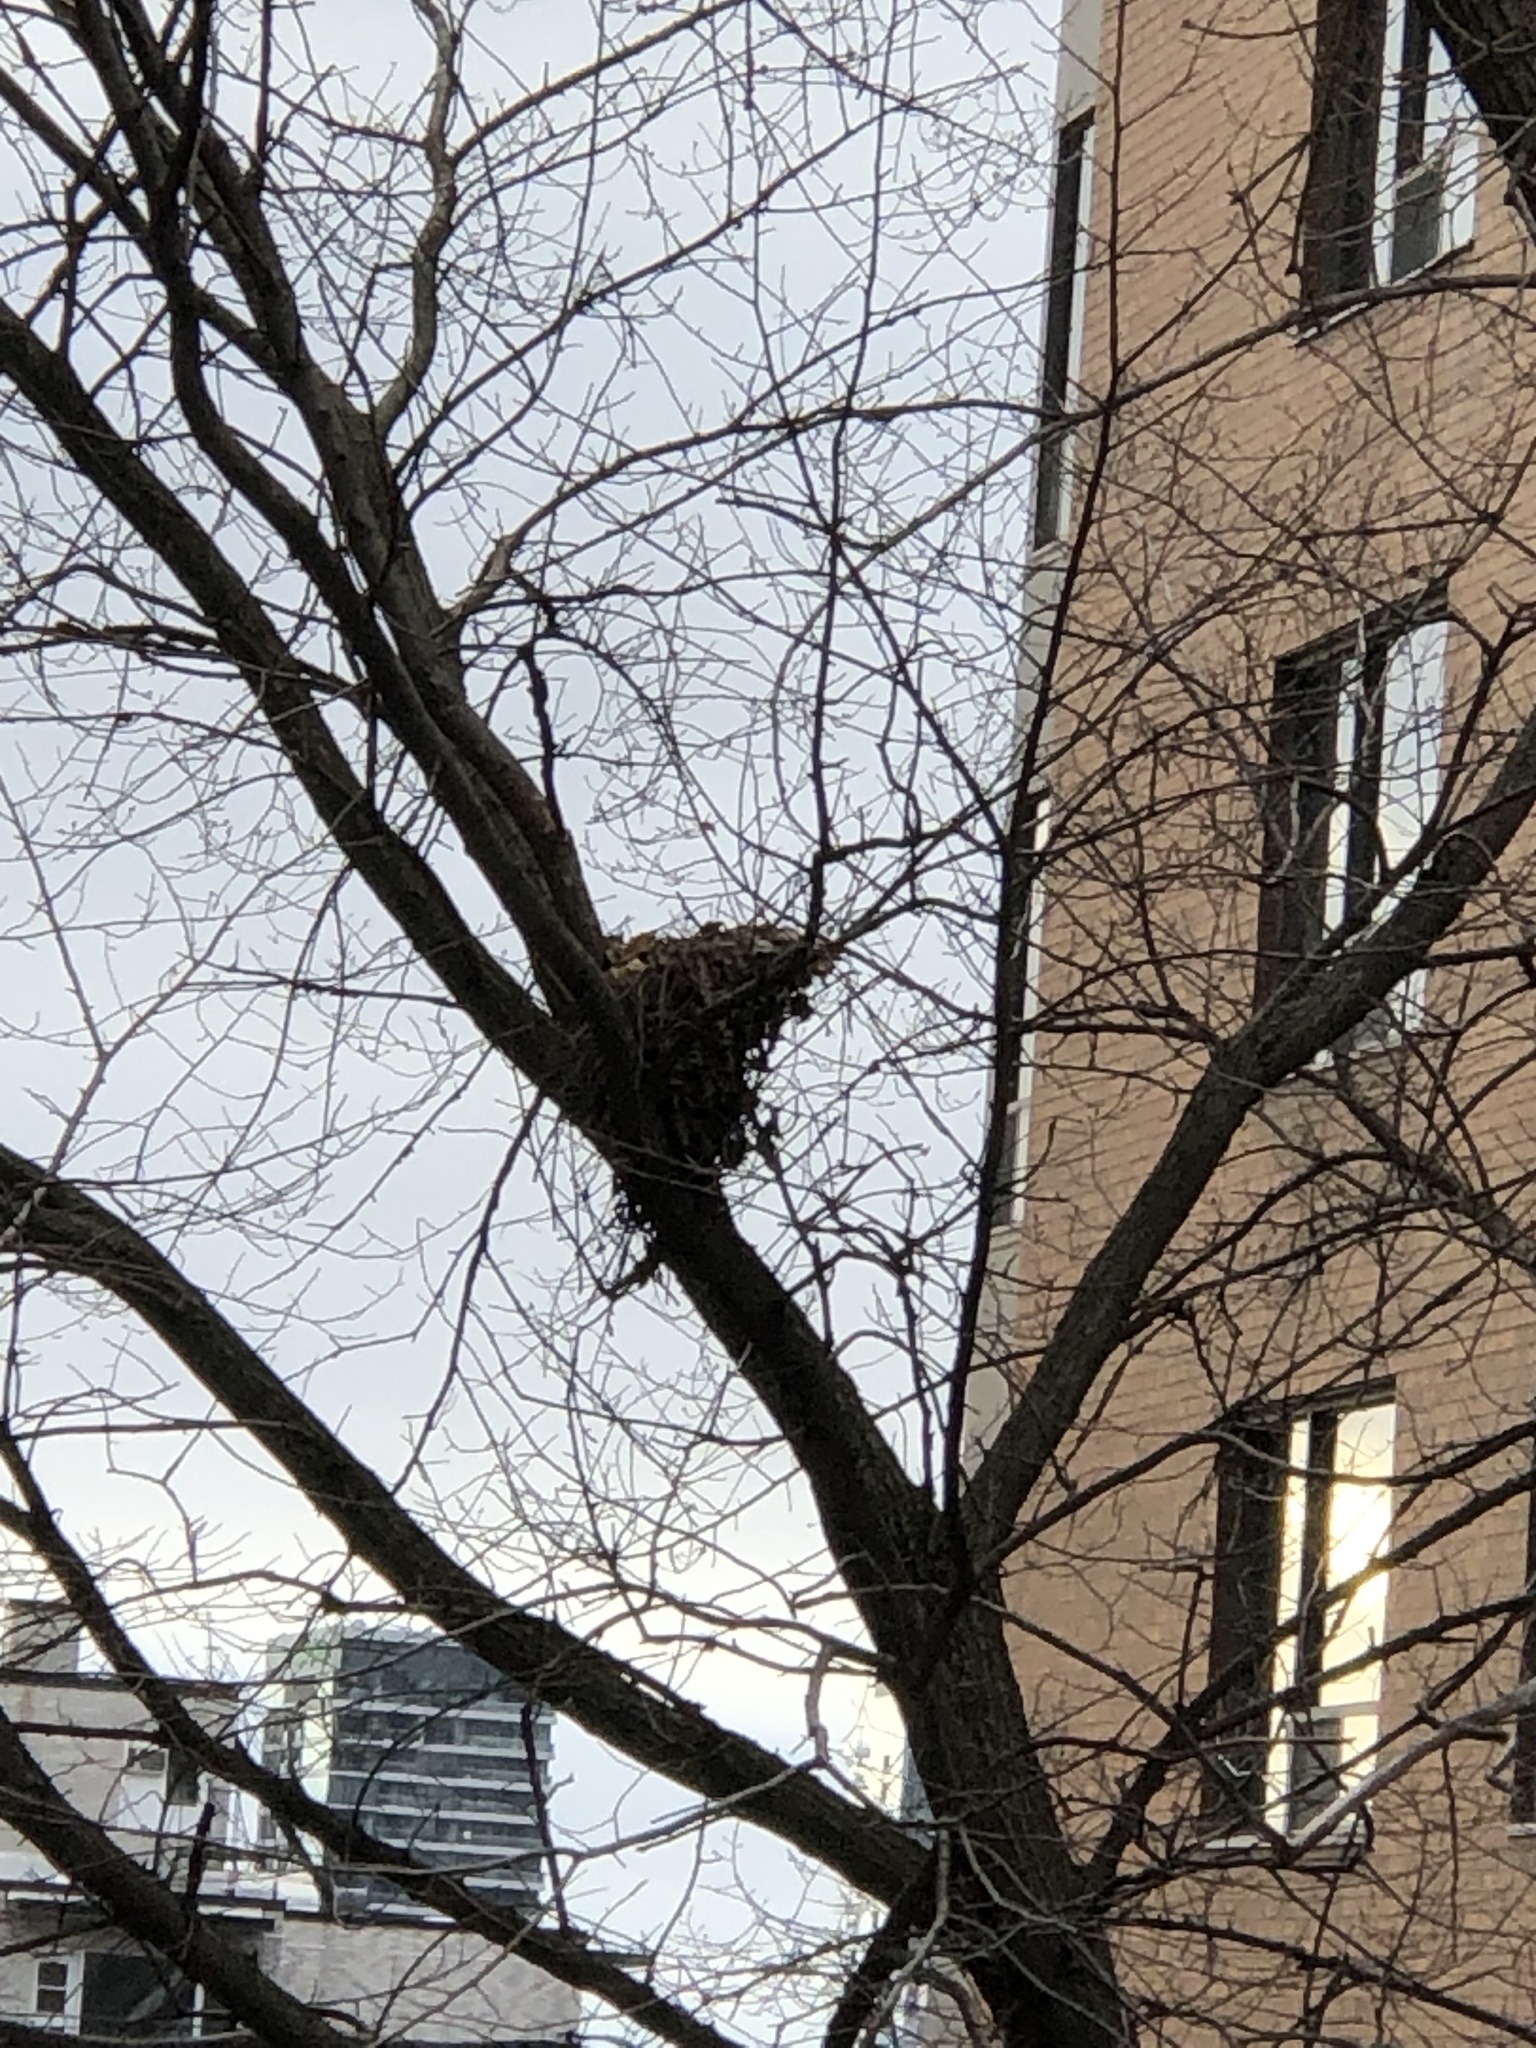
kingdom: Animalia
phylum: Chordata
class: Mammalia
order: Rodentia
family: Sciuridae
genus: Sciurus
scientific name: Sciurus carolinensis
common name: Eastern gray squirrel
